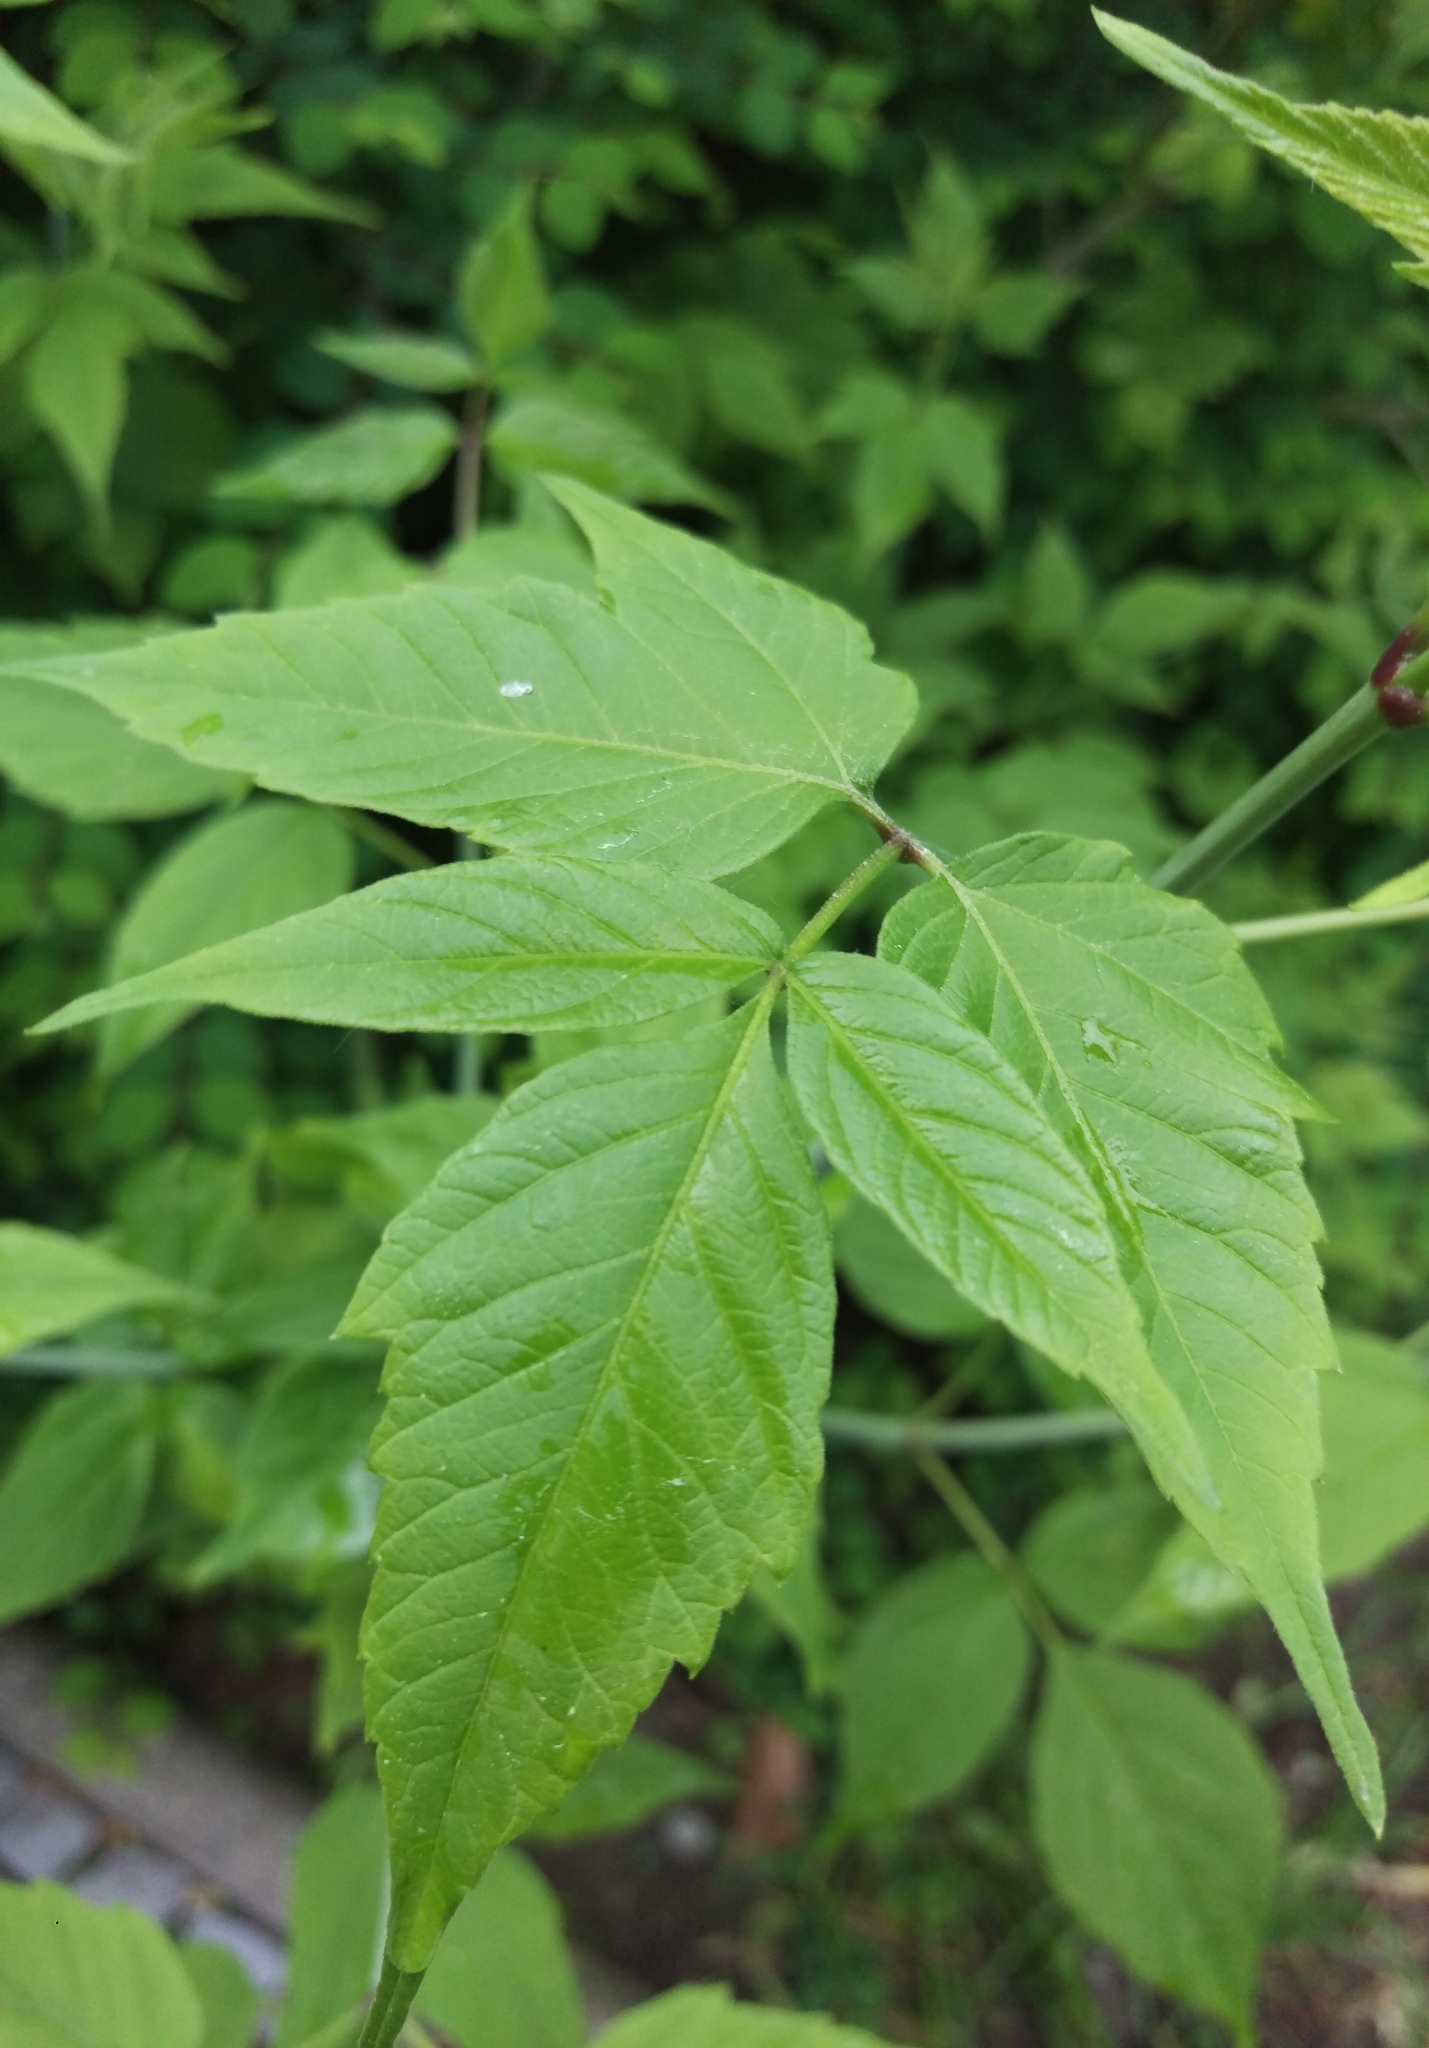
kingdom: Plantae
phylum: Tracheophyta
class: Magnoliopsida
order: Sapindales
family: Sapindaceae
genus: Acer
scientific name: Acer negundo
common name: Ashleaf maple
